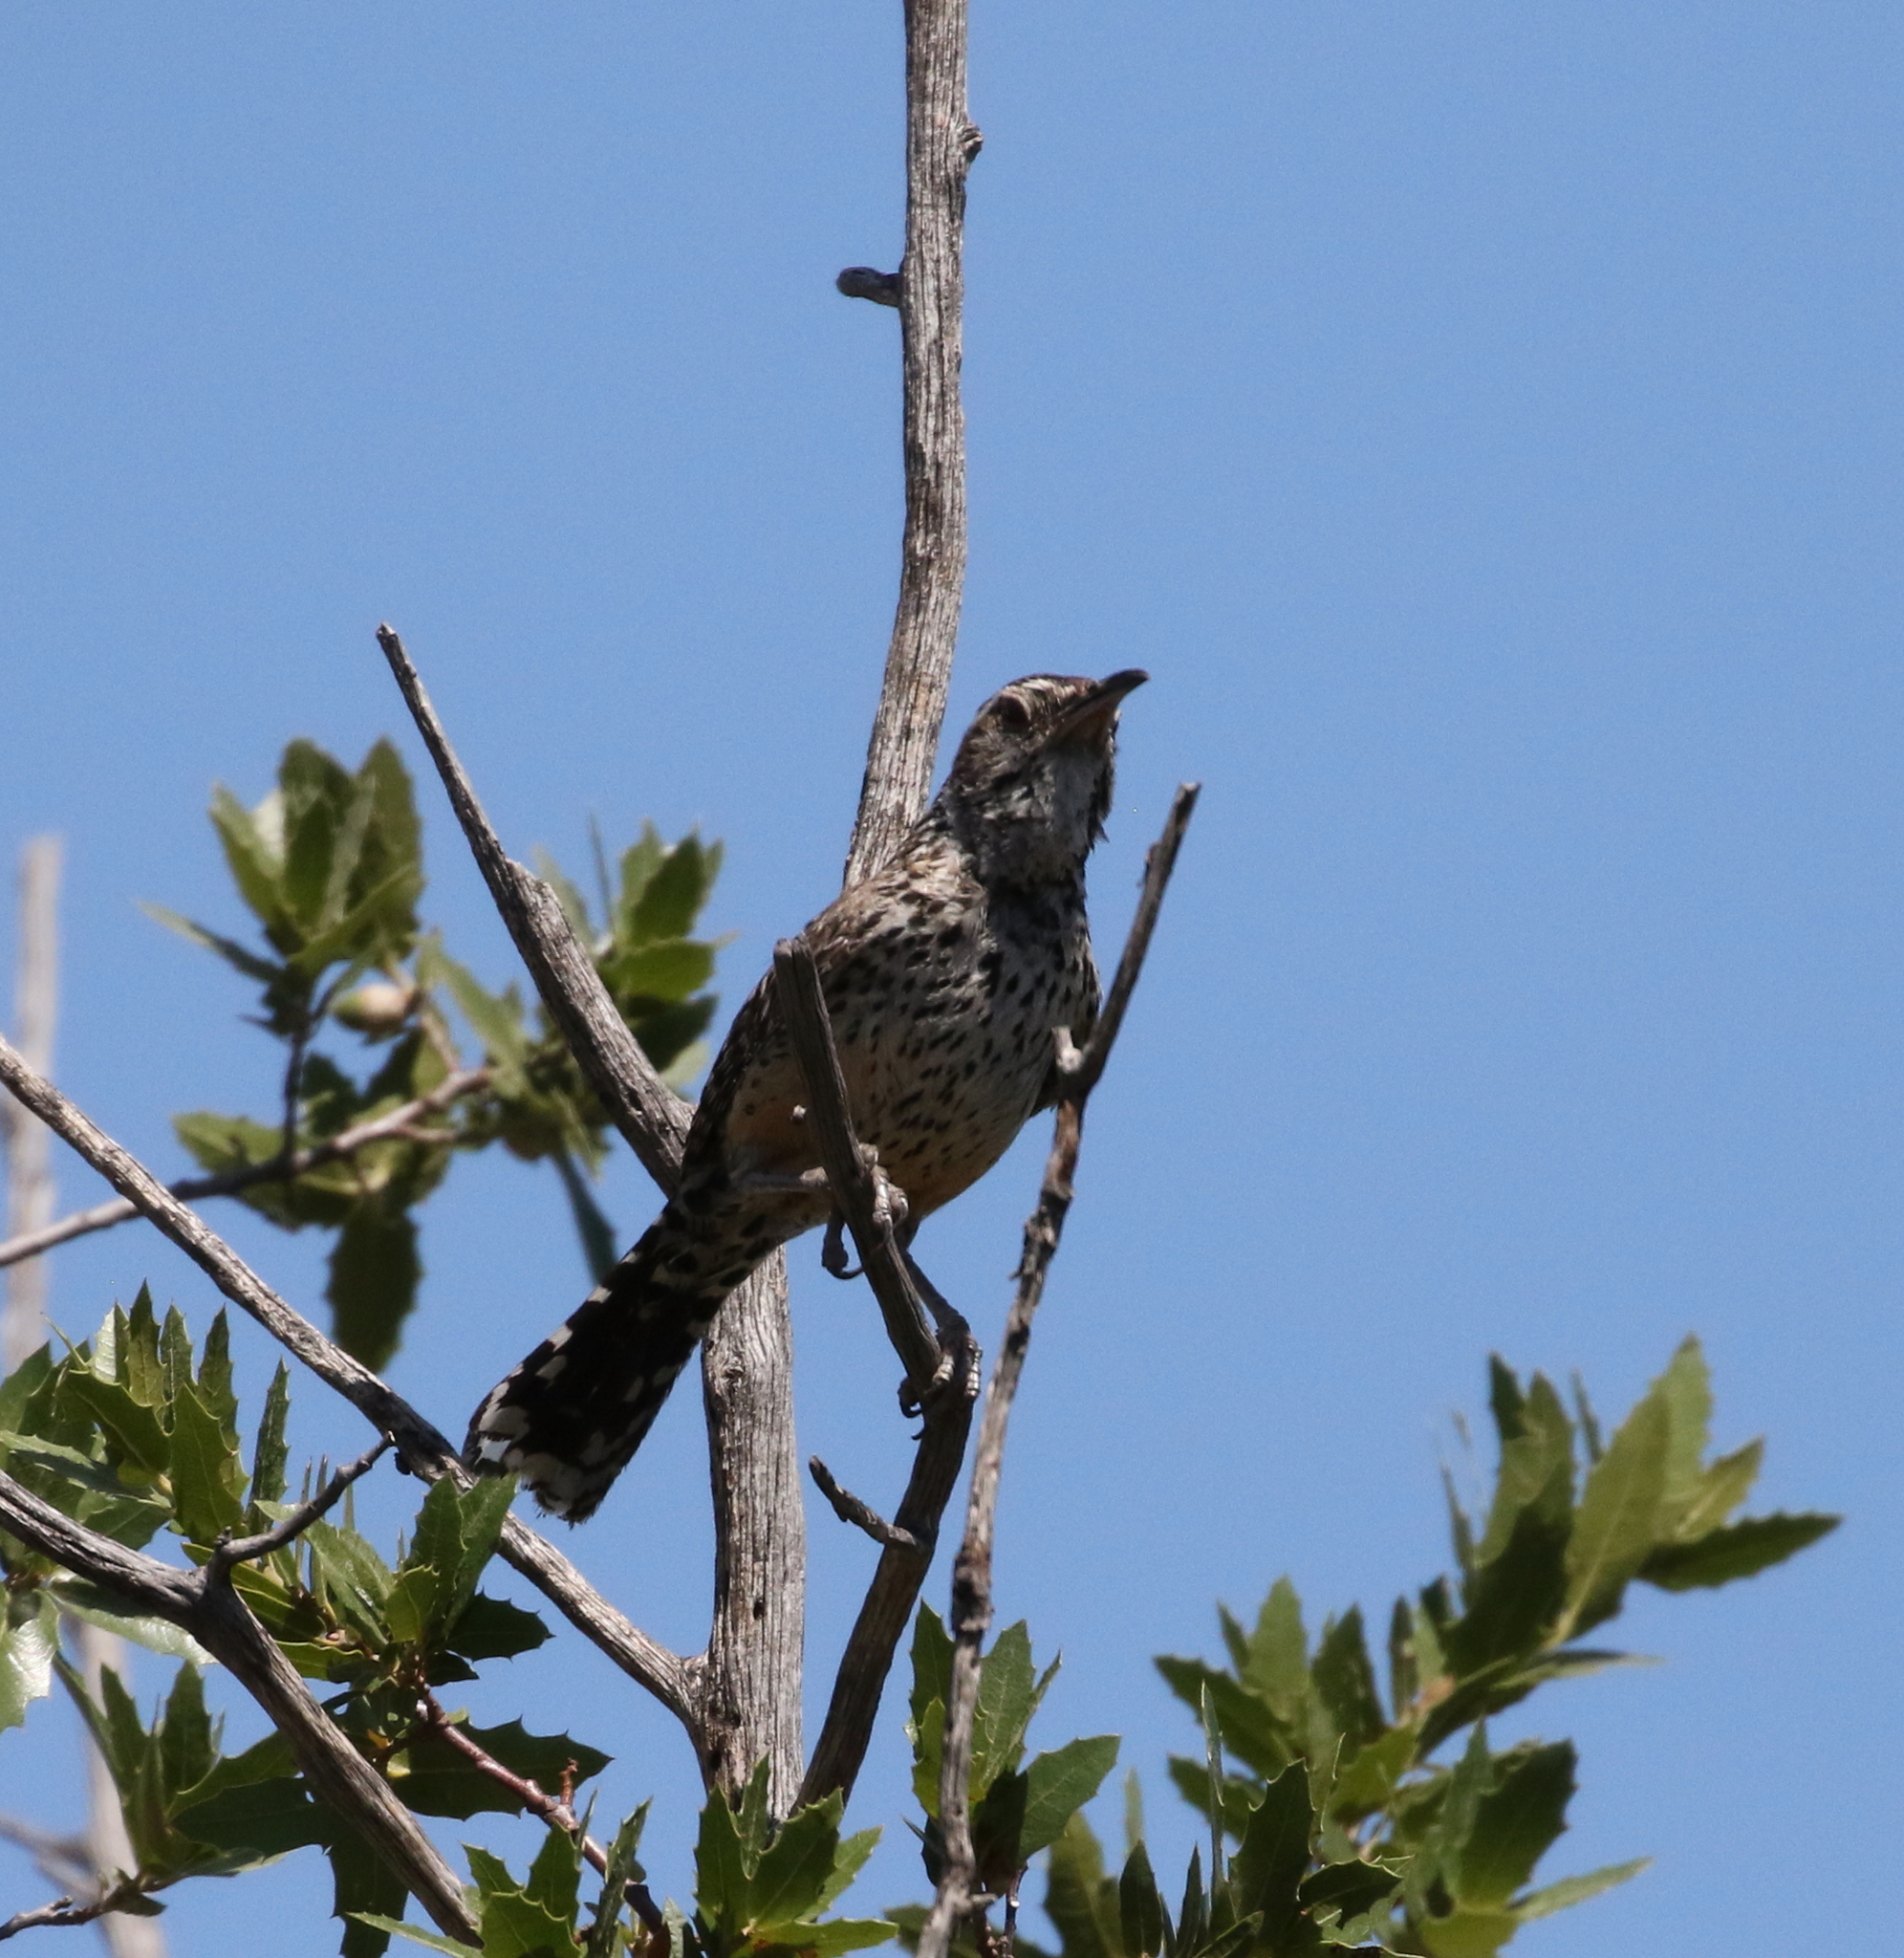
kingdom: Animalia
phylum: Chordata
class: Aves
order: Passeriformes
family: Troglodytidae
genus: Campylorhynchus
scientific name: Campylorhynchus brunneicapillus
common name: Cactus wren
